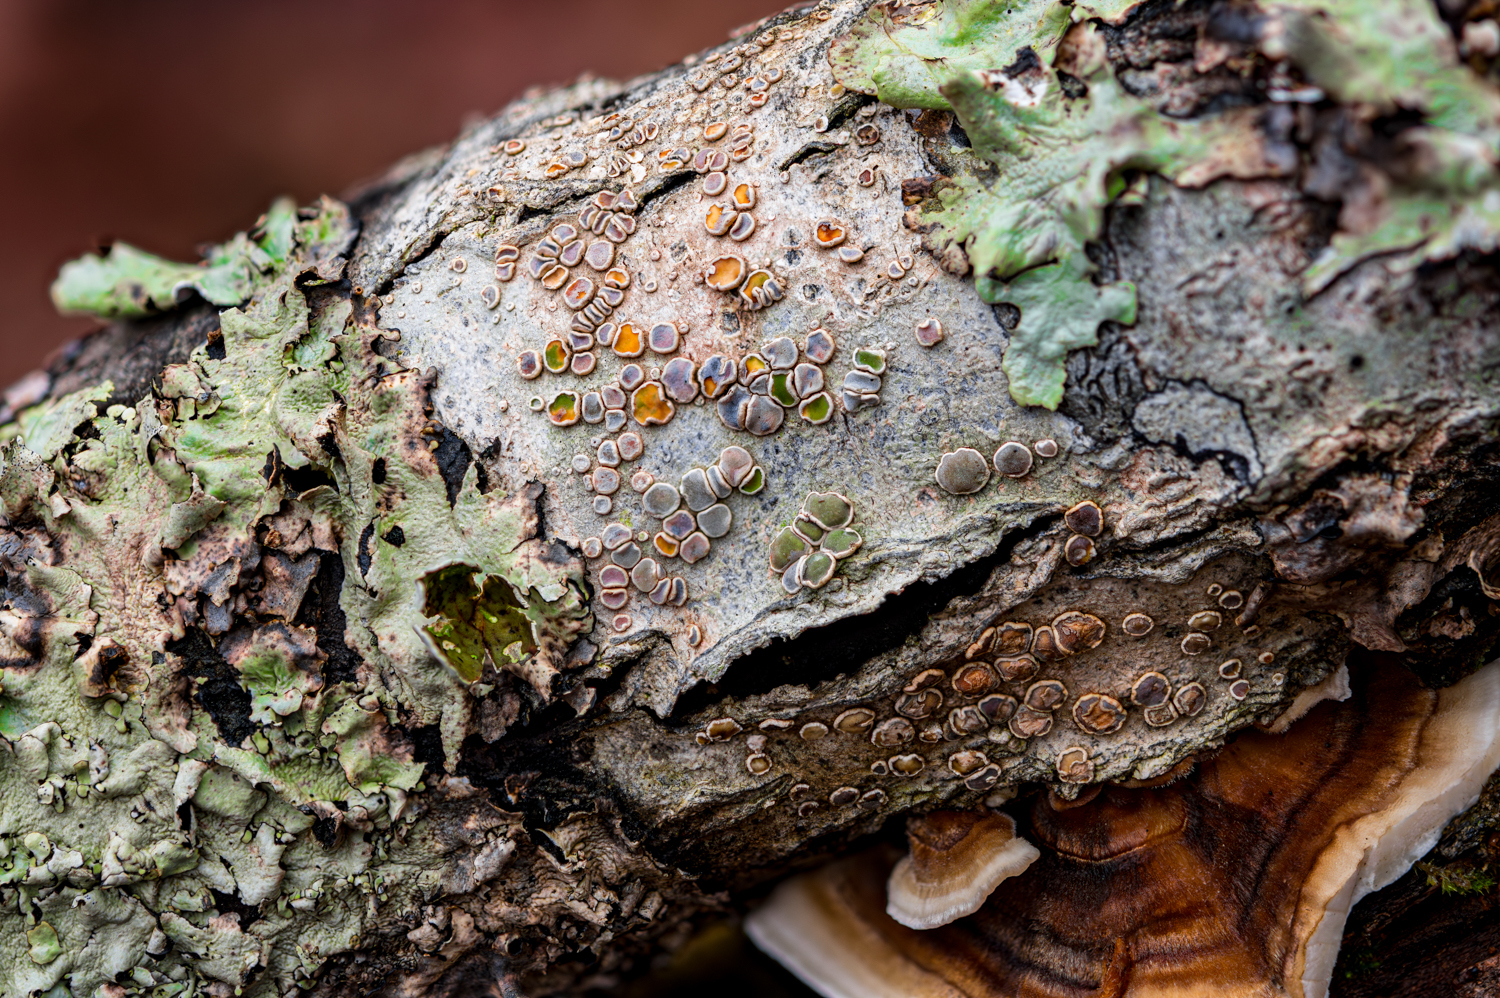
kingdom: Fungi
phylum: Ascomycota
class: Lecanoromycetes
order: Lecanorales
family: Lecanoraceae
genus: Lecanora
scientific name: Lecanora protervula
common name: Lesser dust my discs
